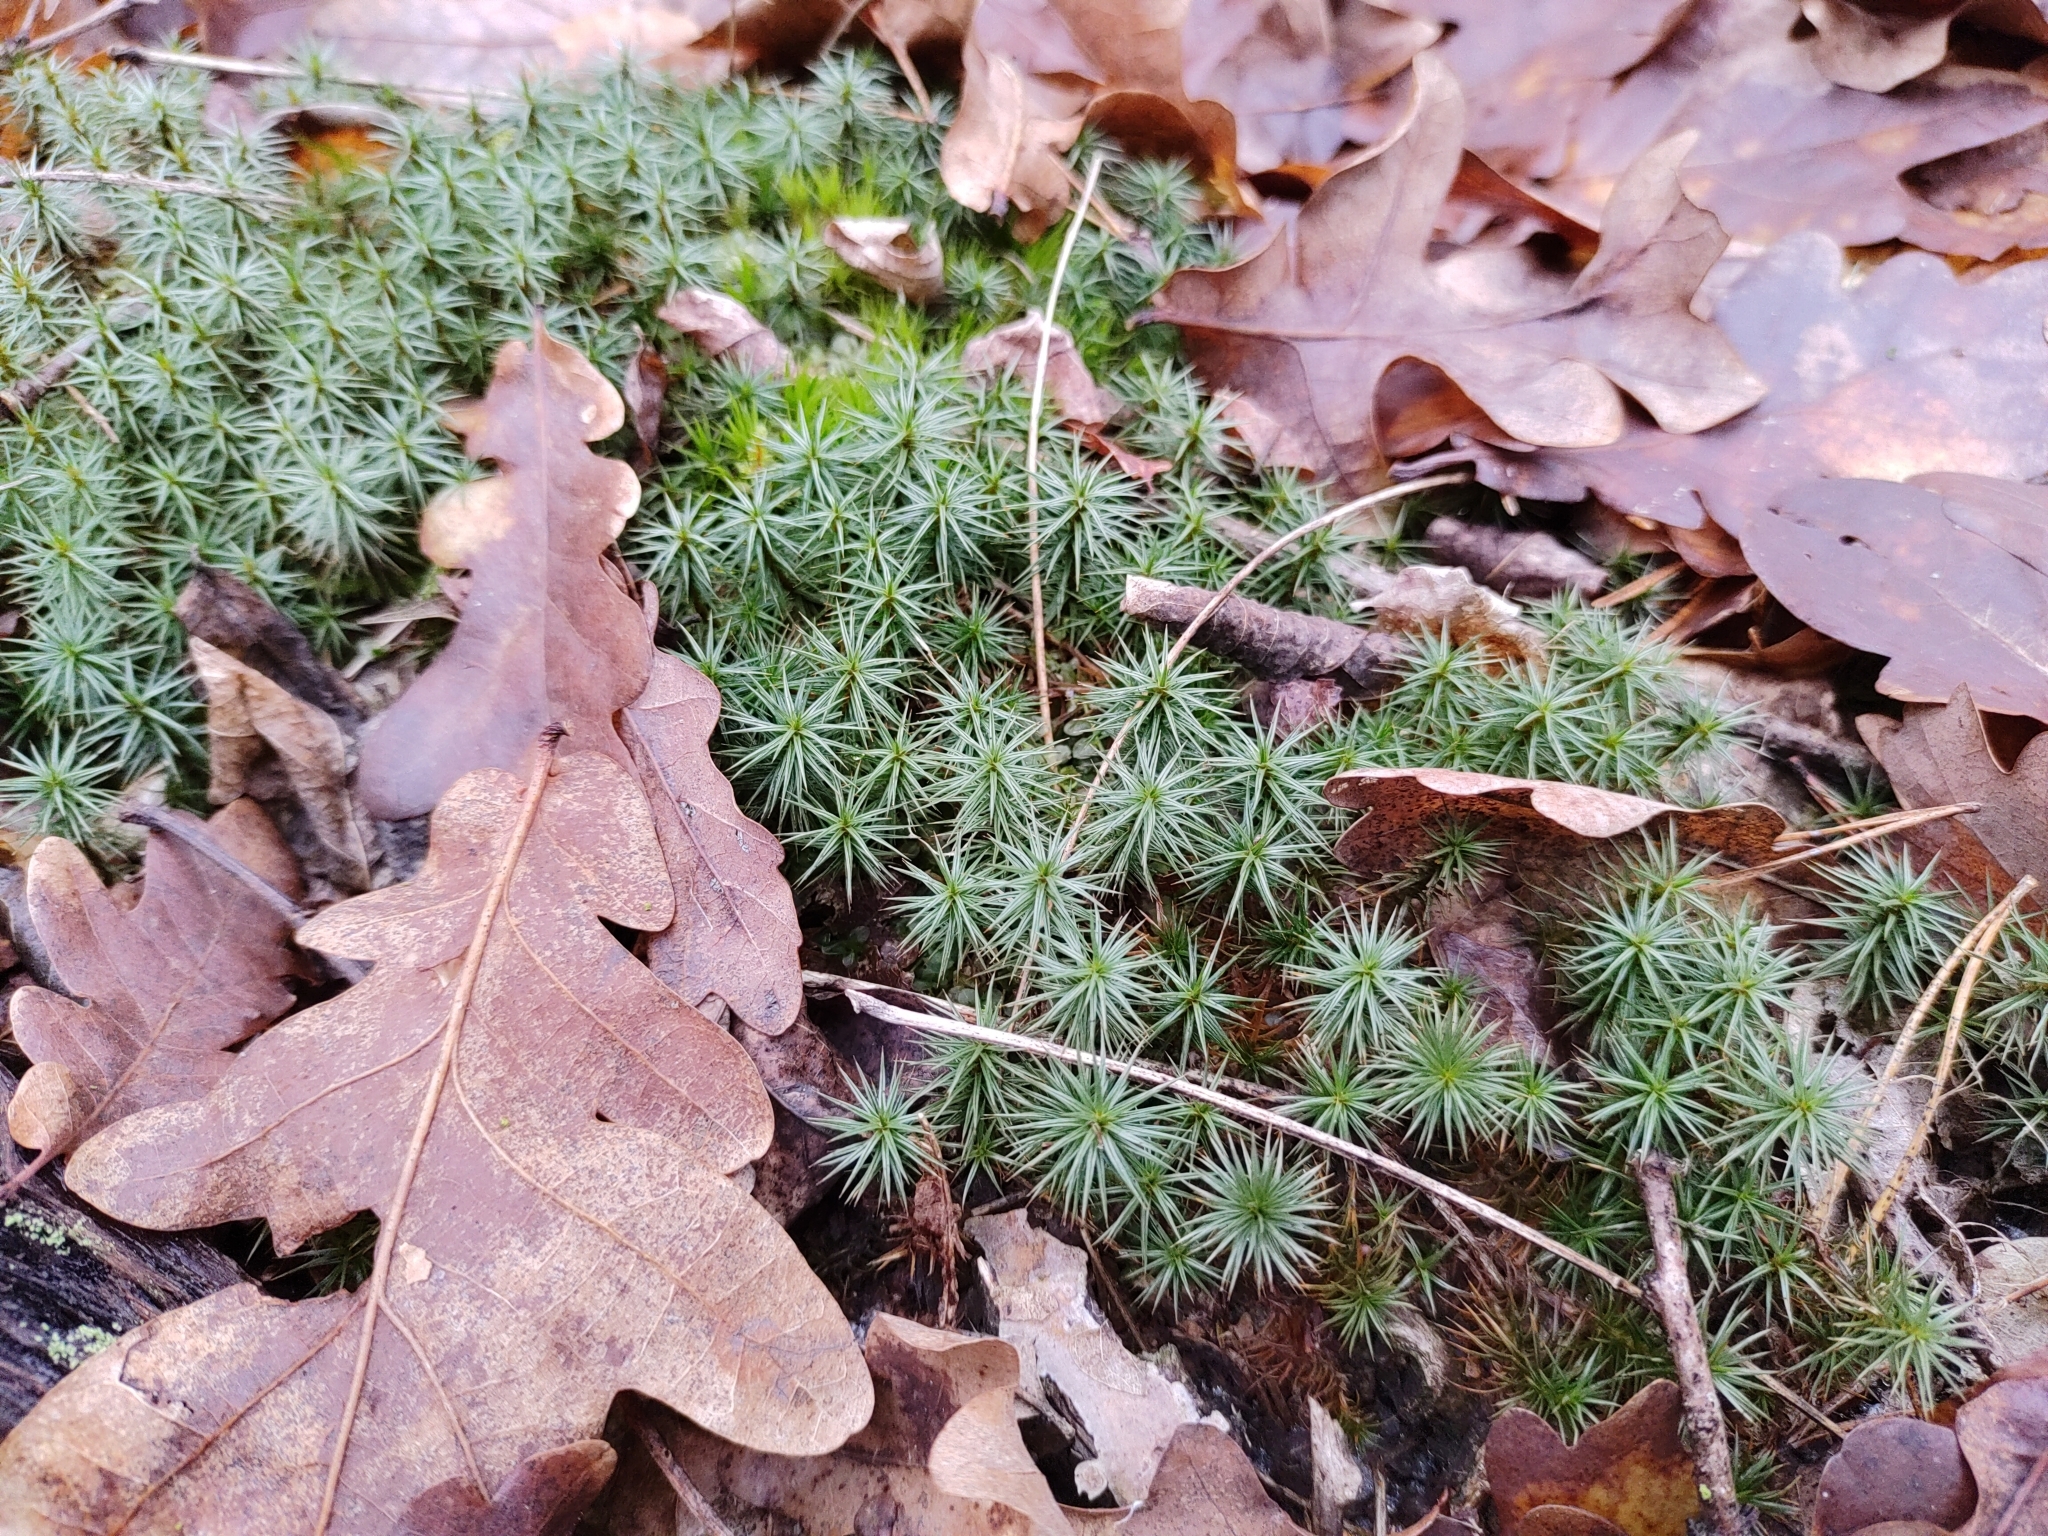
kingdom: Plantae
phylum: Bryophyta
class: Polytrichopsida
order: Polytrichales
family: Polytrichaceae
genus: Polytrichum
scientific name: Polytrichum juniperinum
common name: Juniper haircap moss
